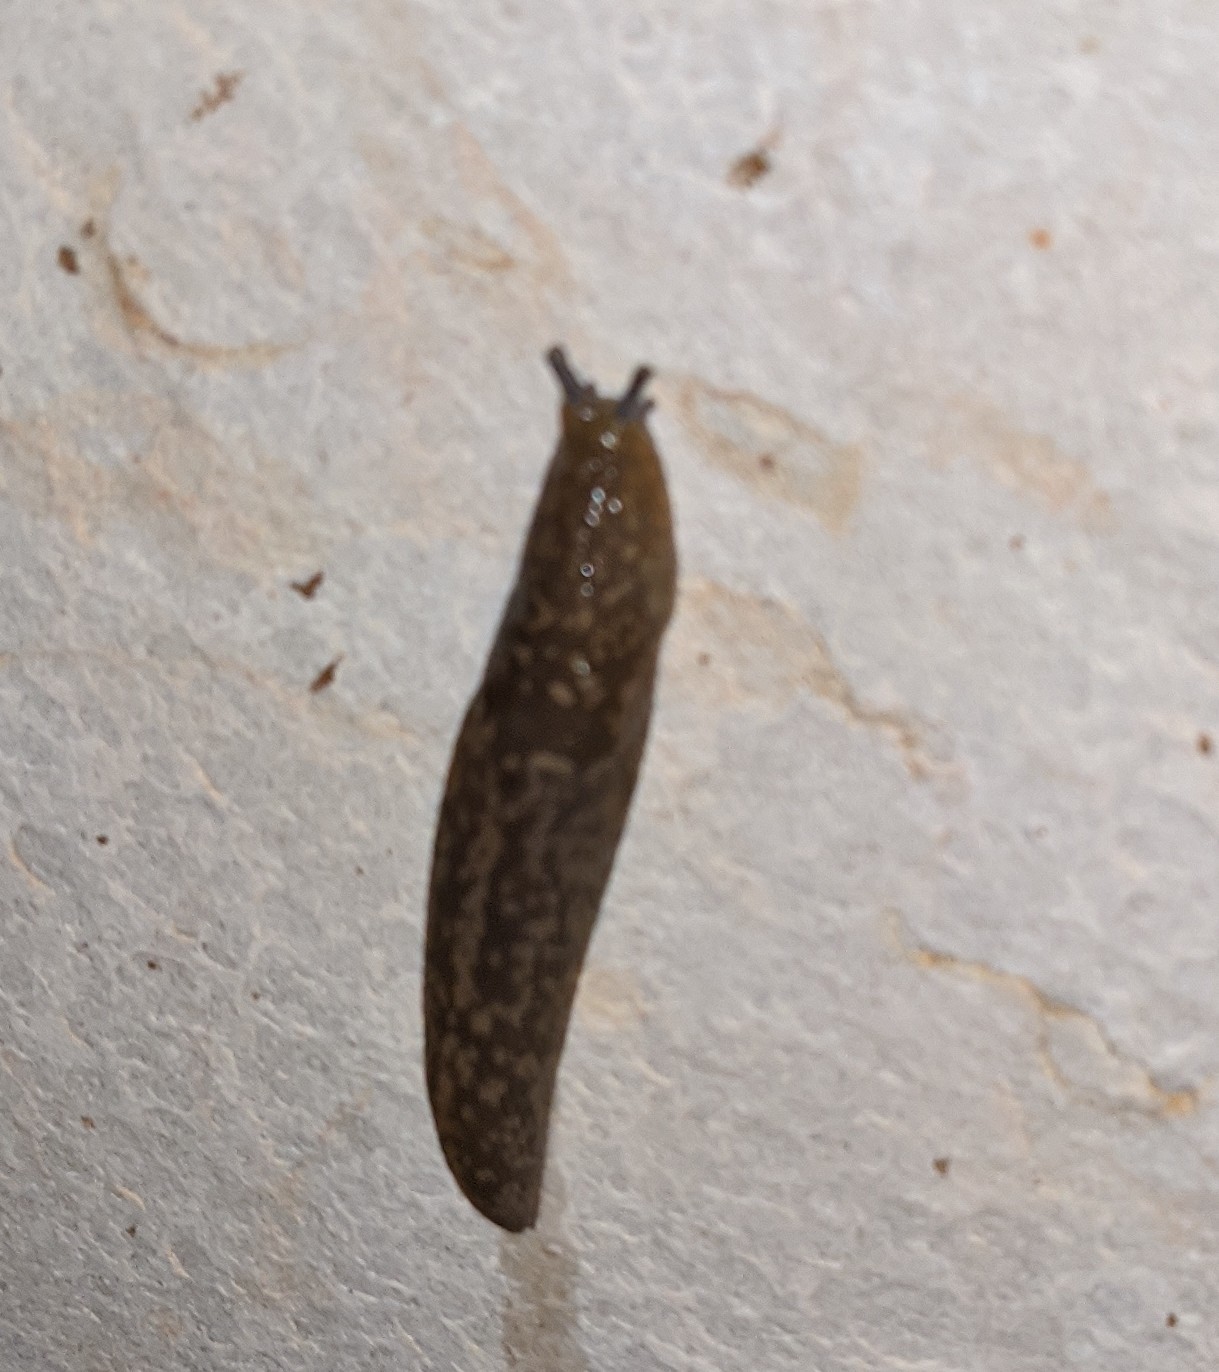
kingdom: Animalia
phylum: Mollusca
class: Gastropoda
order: Stylommatophora
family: Limacidae
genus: Limacus
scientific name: Limacus flavus
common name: Yellow gardenslug
